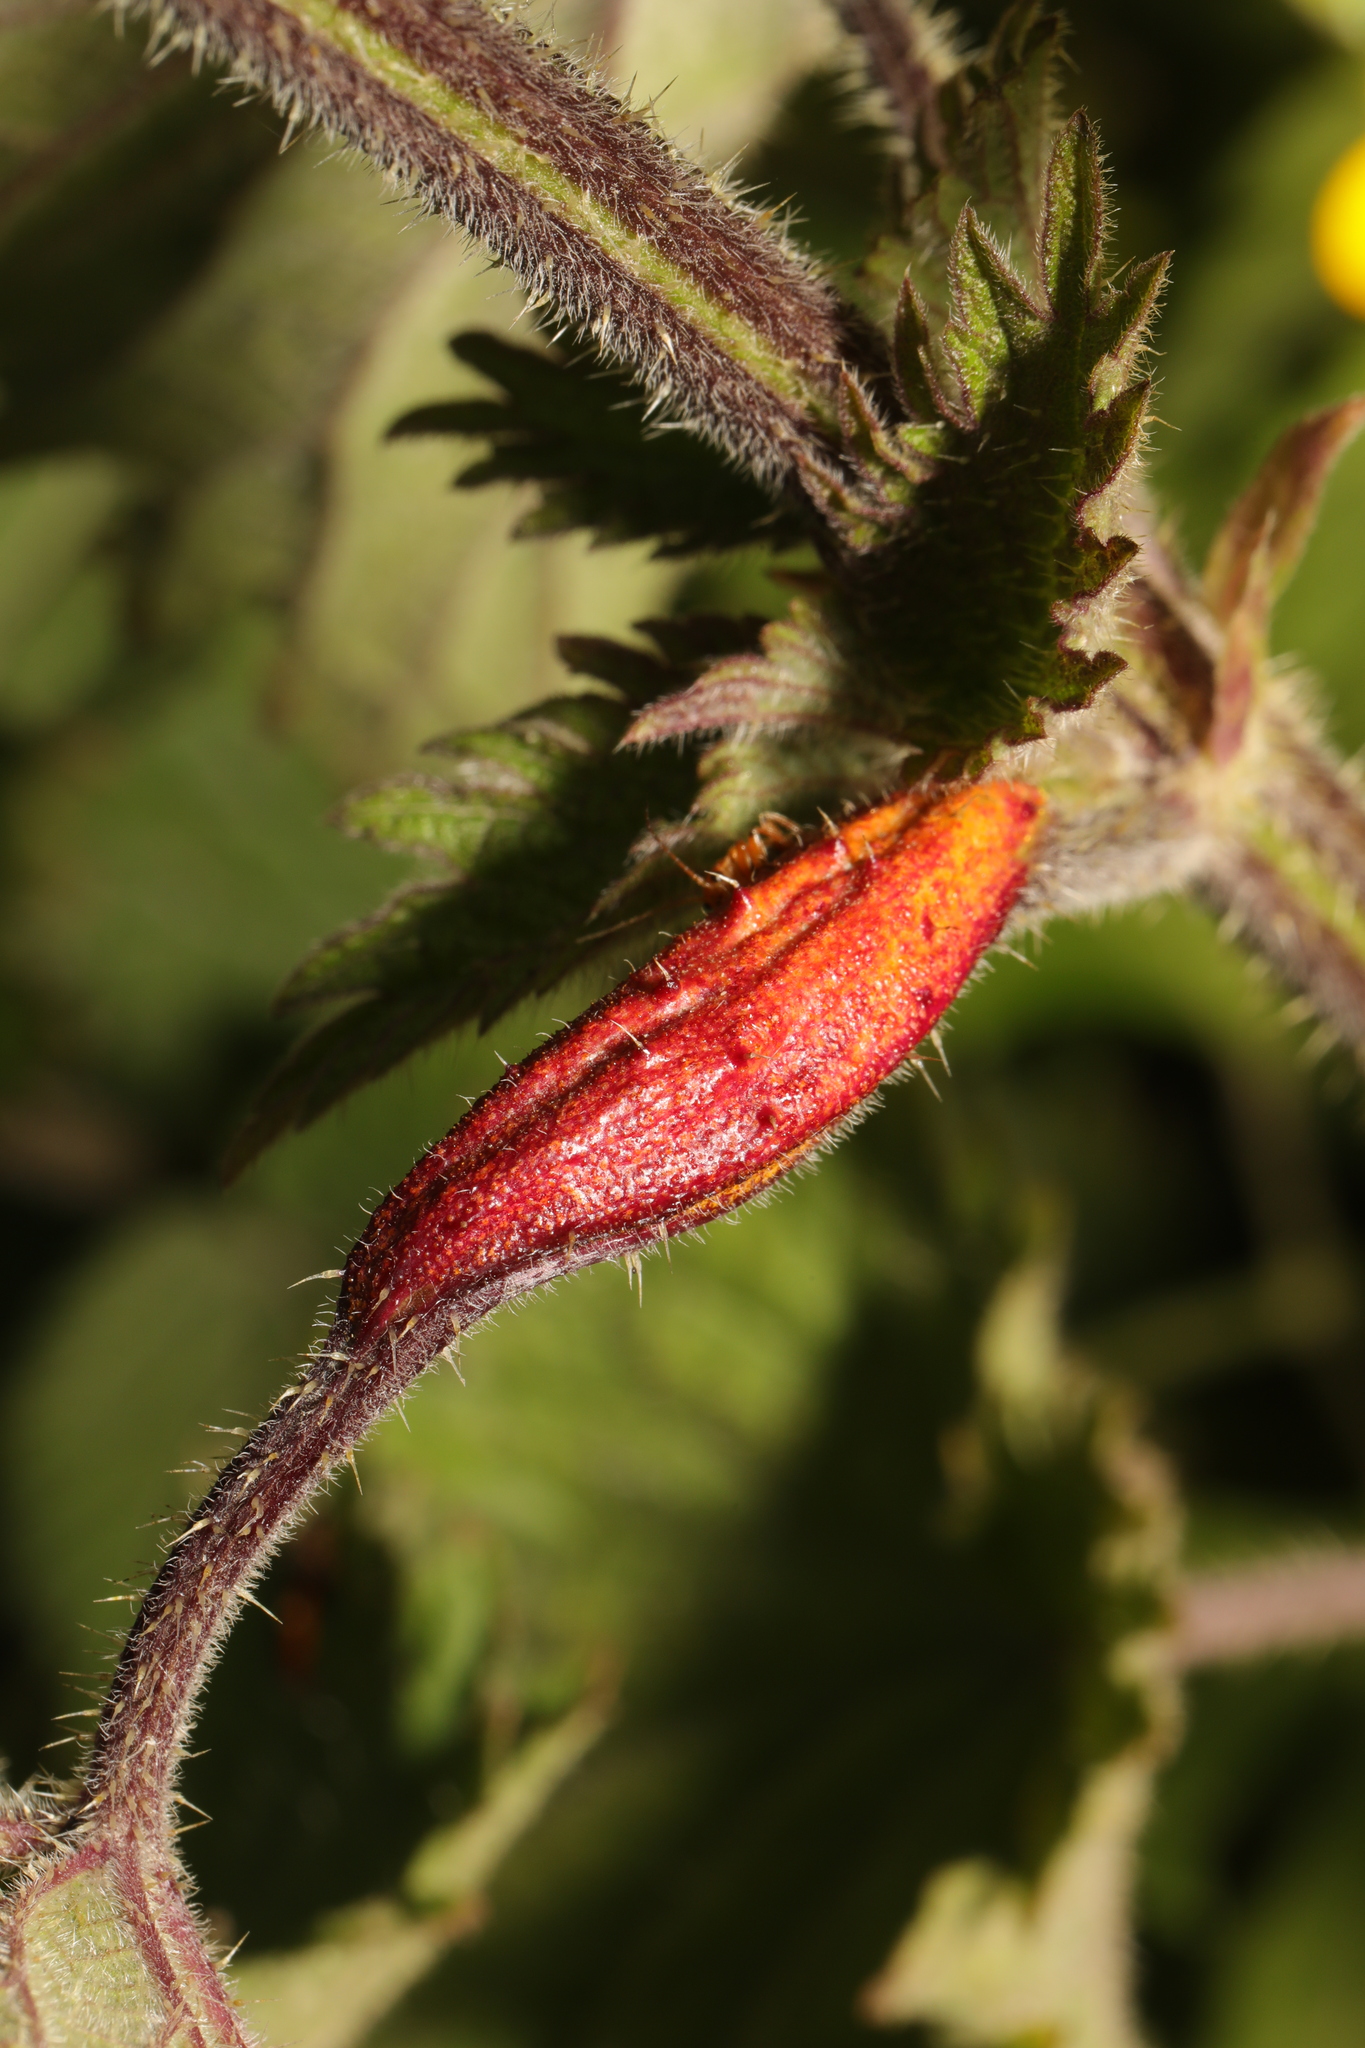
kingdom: Fungi
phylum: Basidiomycota
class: Pucciniomycetes
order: Pucciniales
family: Pucciniaceae
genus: Puccinia
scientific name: Puccinia urticata
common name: Nettle clustercup rust fungus
